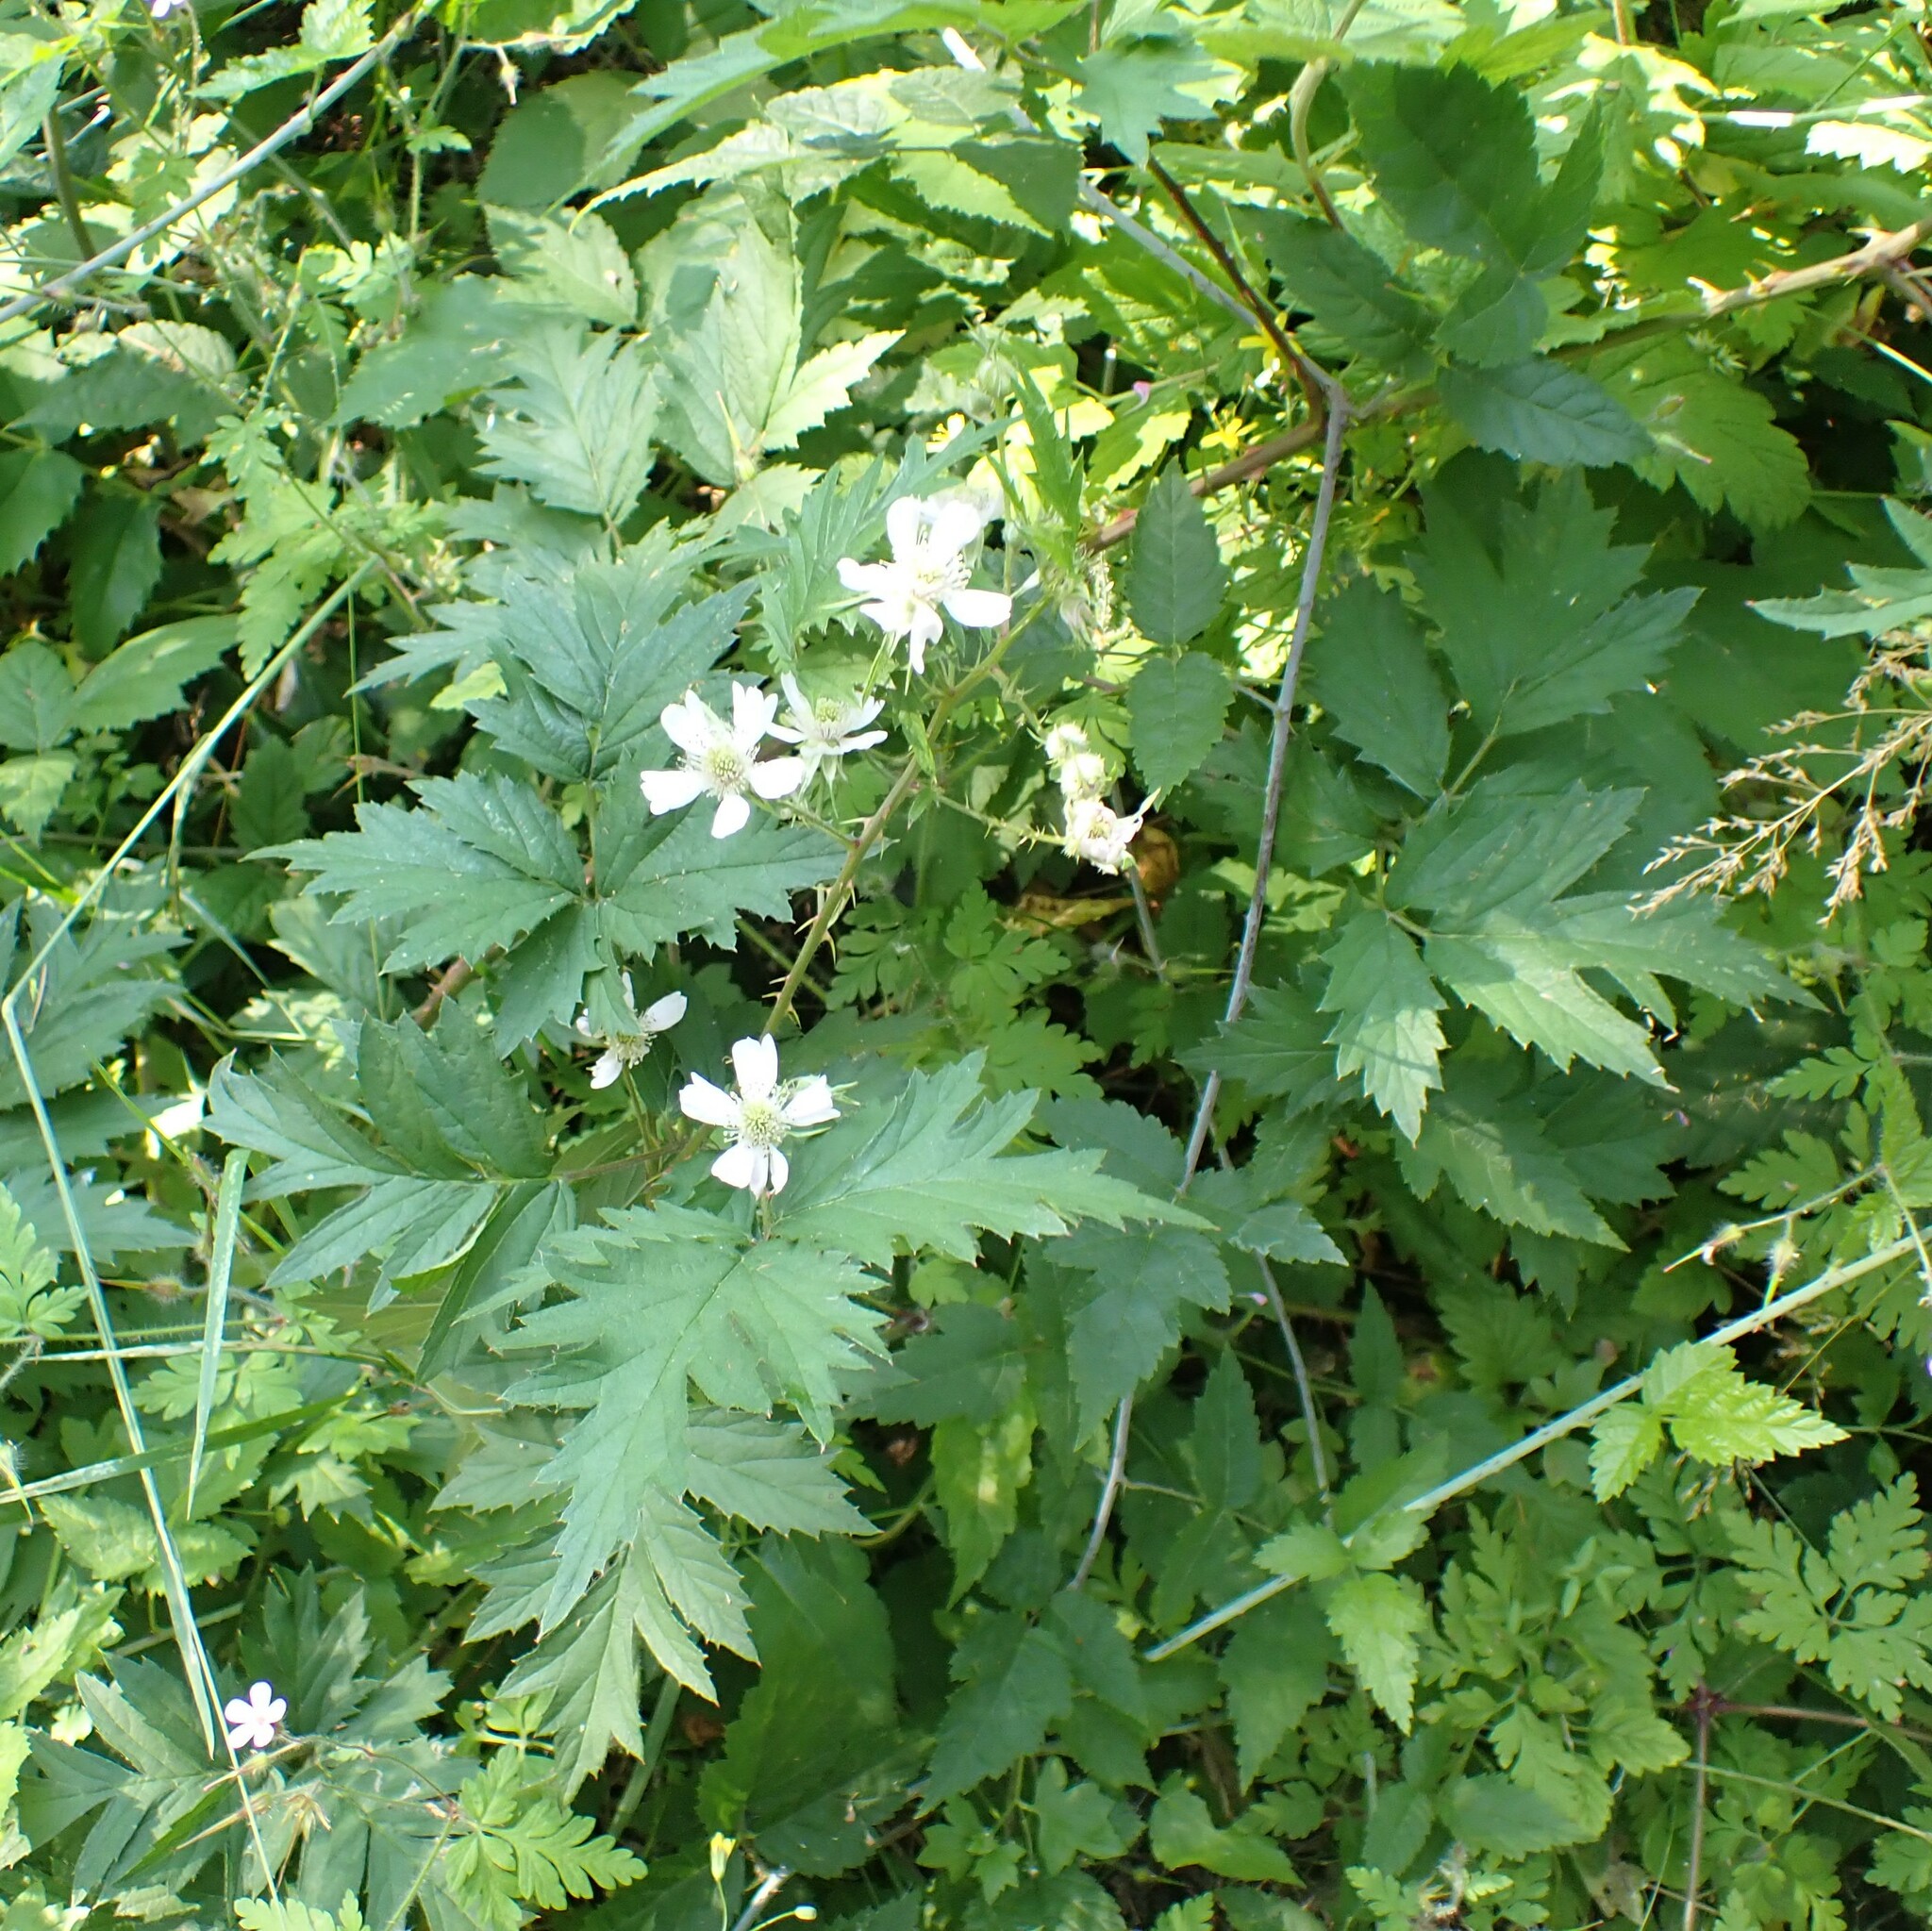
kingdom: Plantae
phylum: Tracheophyta
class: Magnoliopsida
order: Rosales
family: Rosaceae
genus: Rubus
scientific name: Rubus laciniatus
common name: Evergreen blackberry
